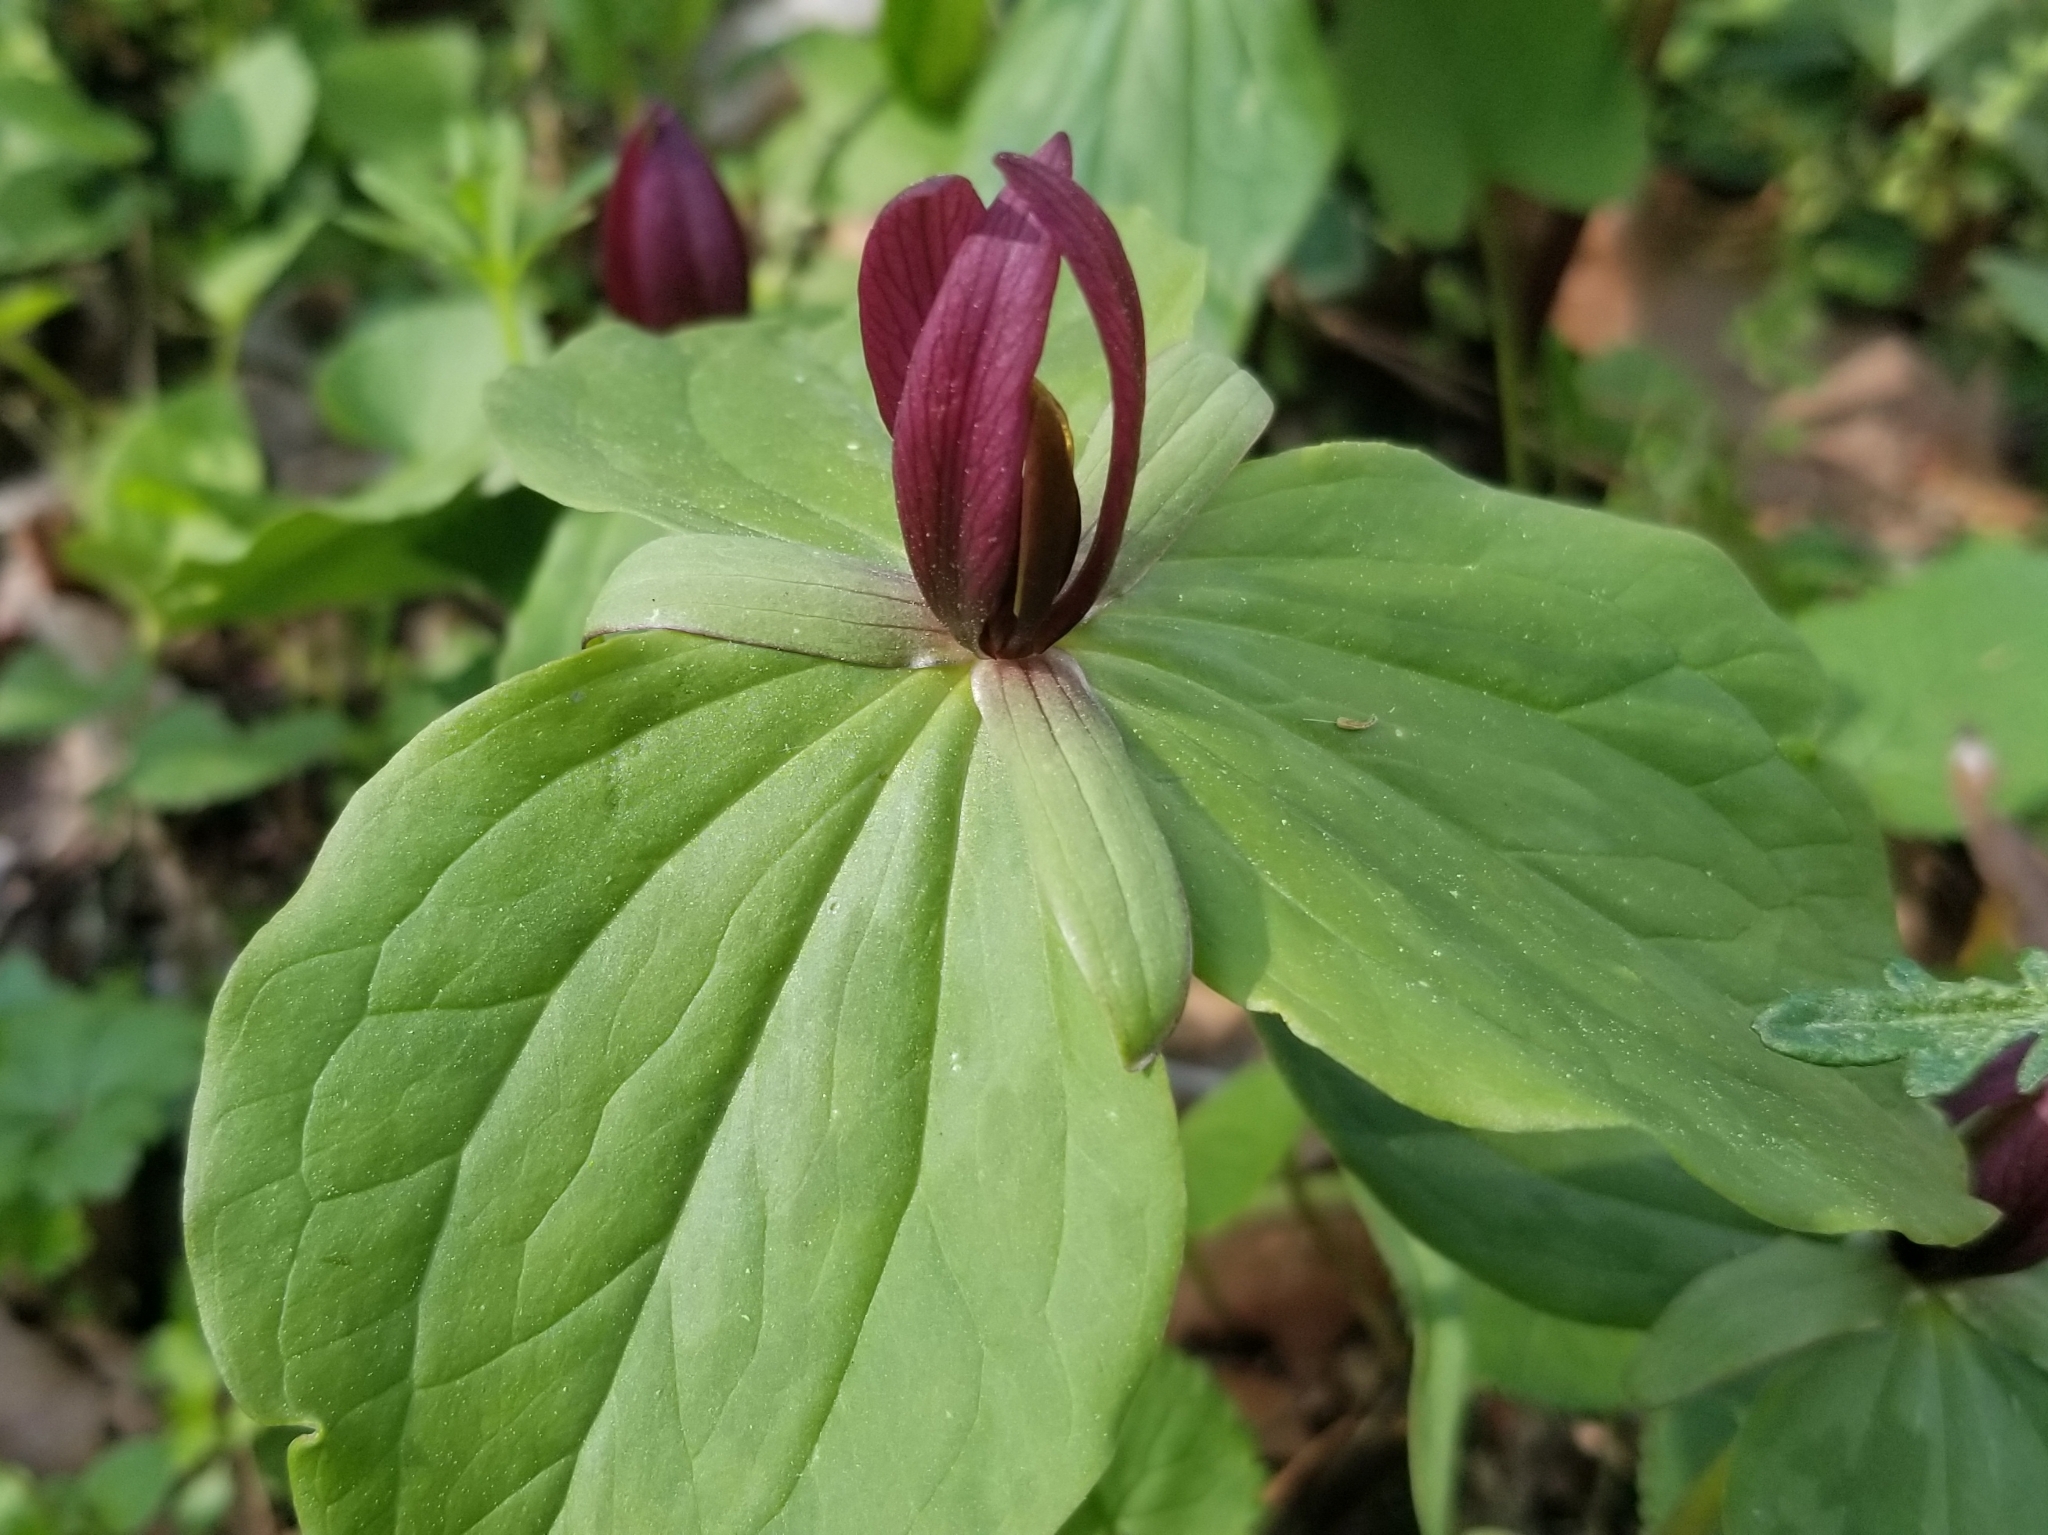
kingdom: Plantae
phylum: Tracheophyta
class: Liliopsida
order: Liliales
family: Melanthiaceae
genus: Trillium
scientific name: Trillium sessile
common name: Sessile trillium
